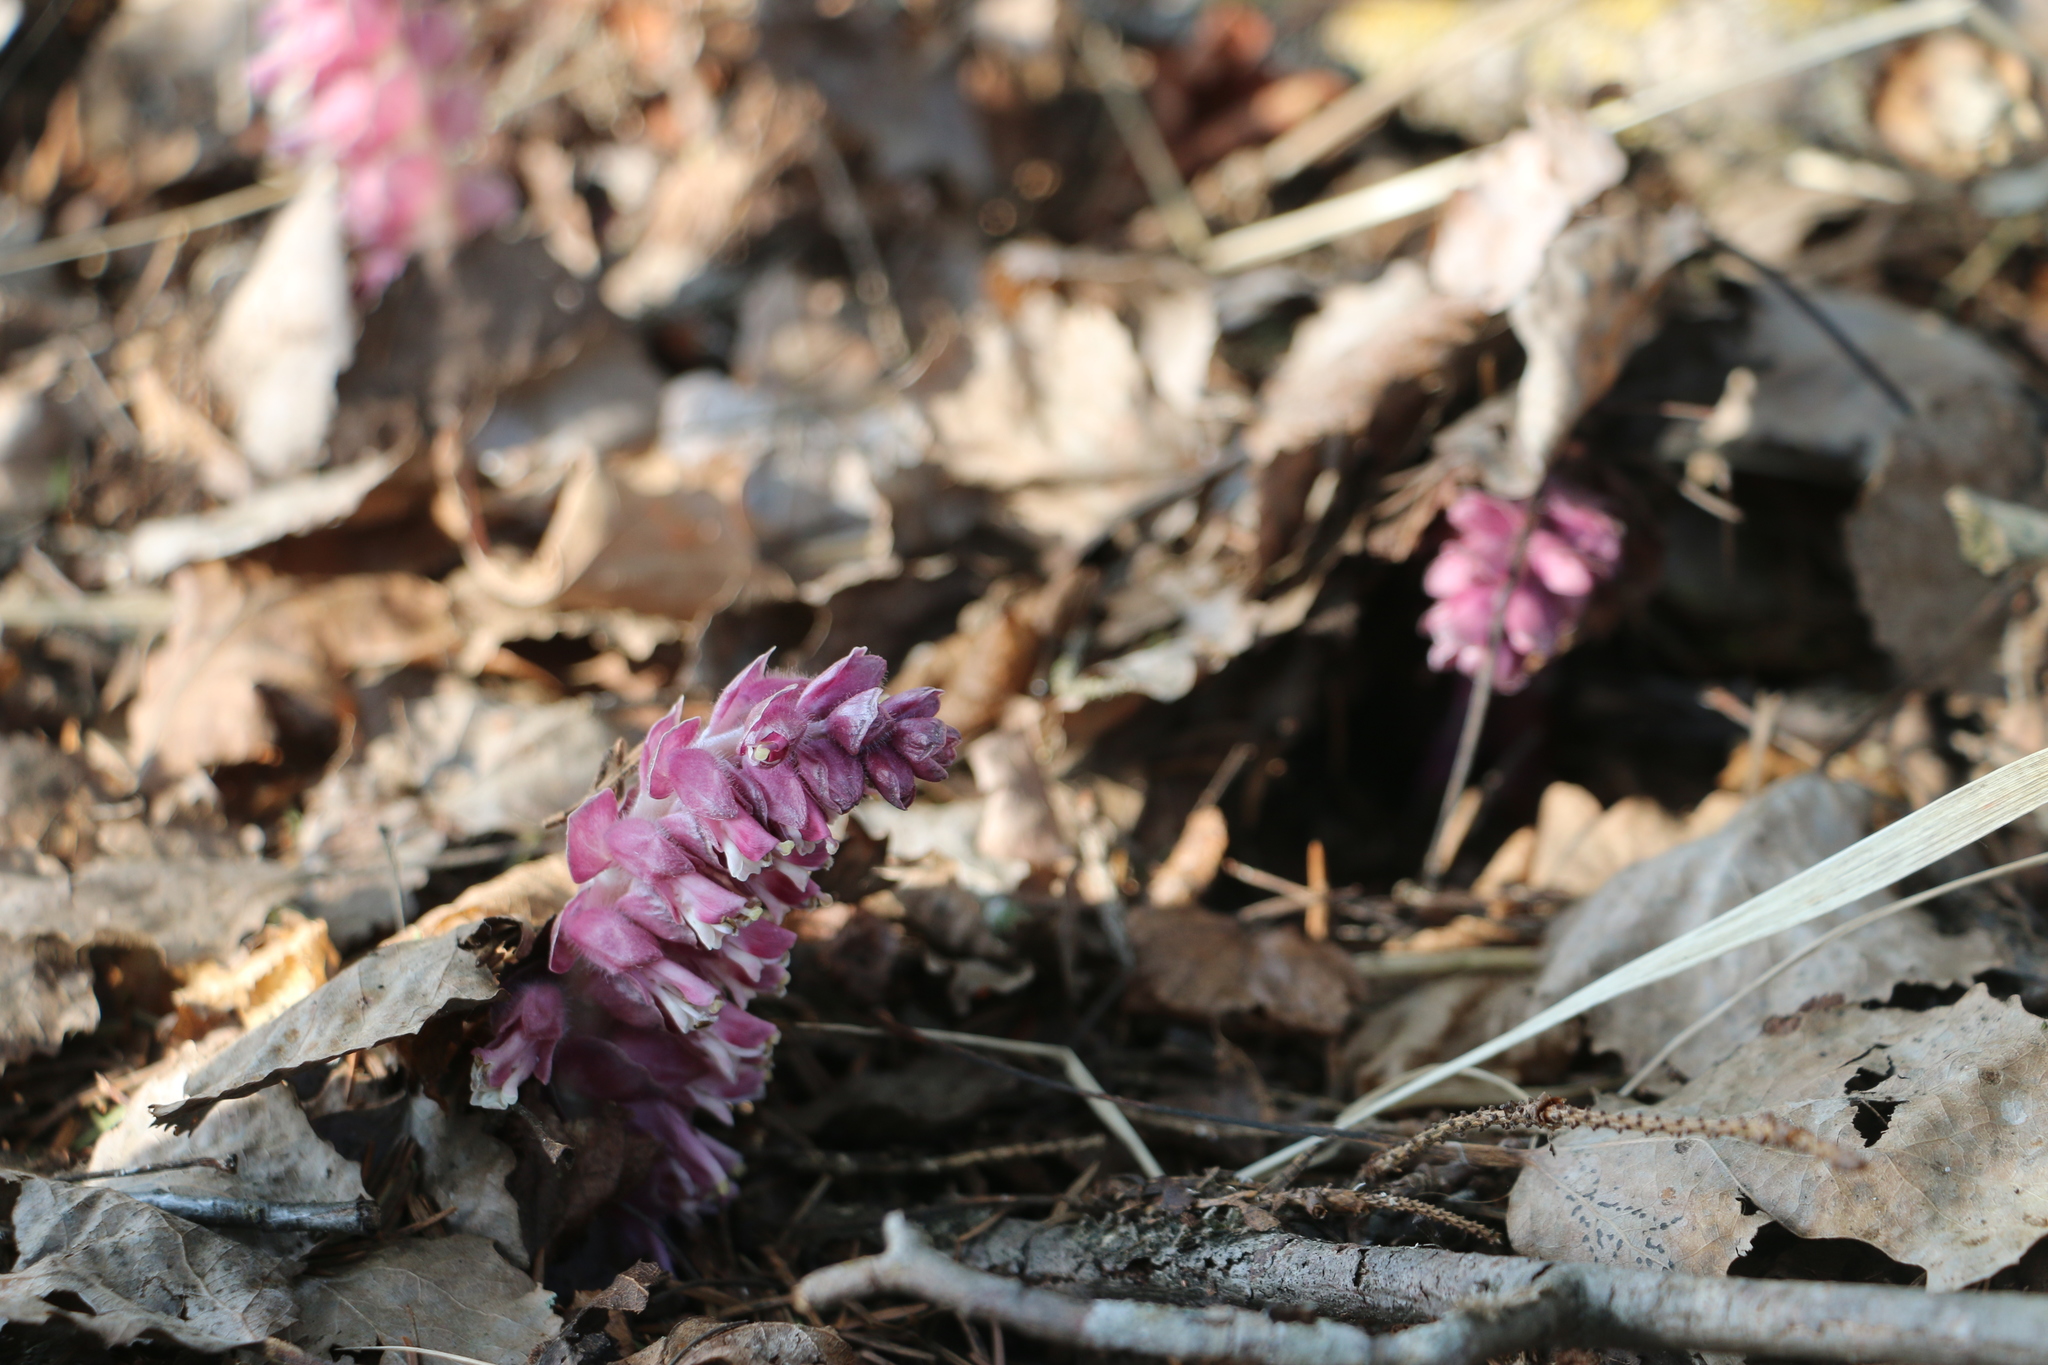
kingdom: Plantae
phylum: Tracheophyta
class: Magnoliopsida
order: Lamiales
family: Orobanchaceae
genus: Lathraea
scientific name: Lathraea squamaria
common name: Toothwort
